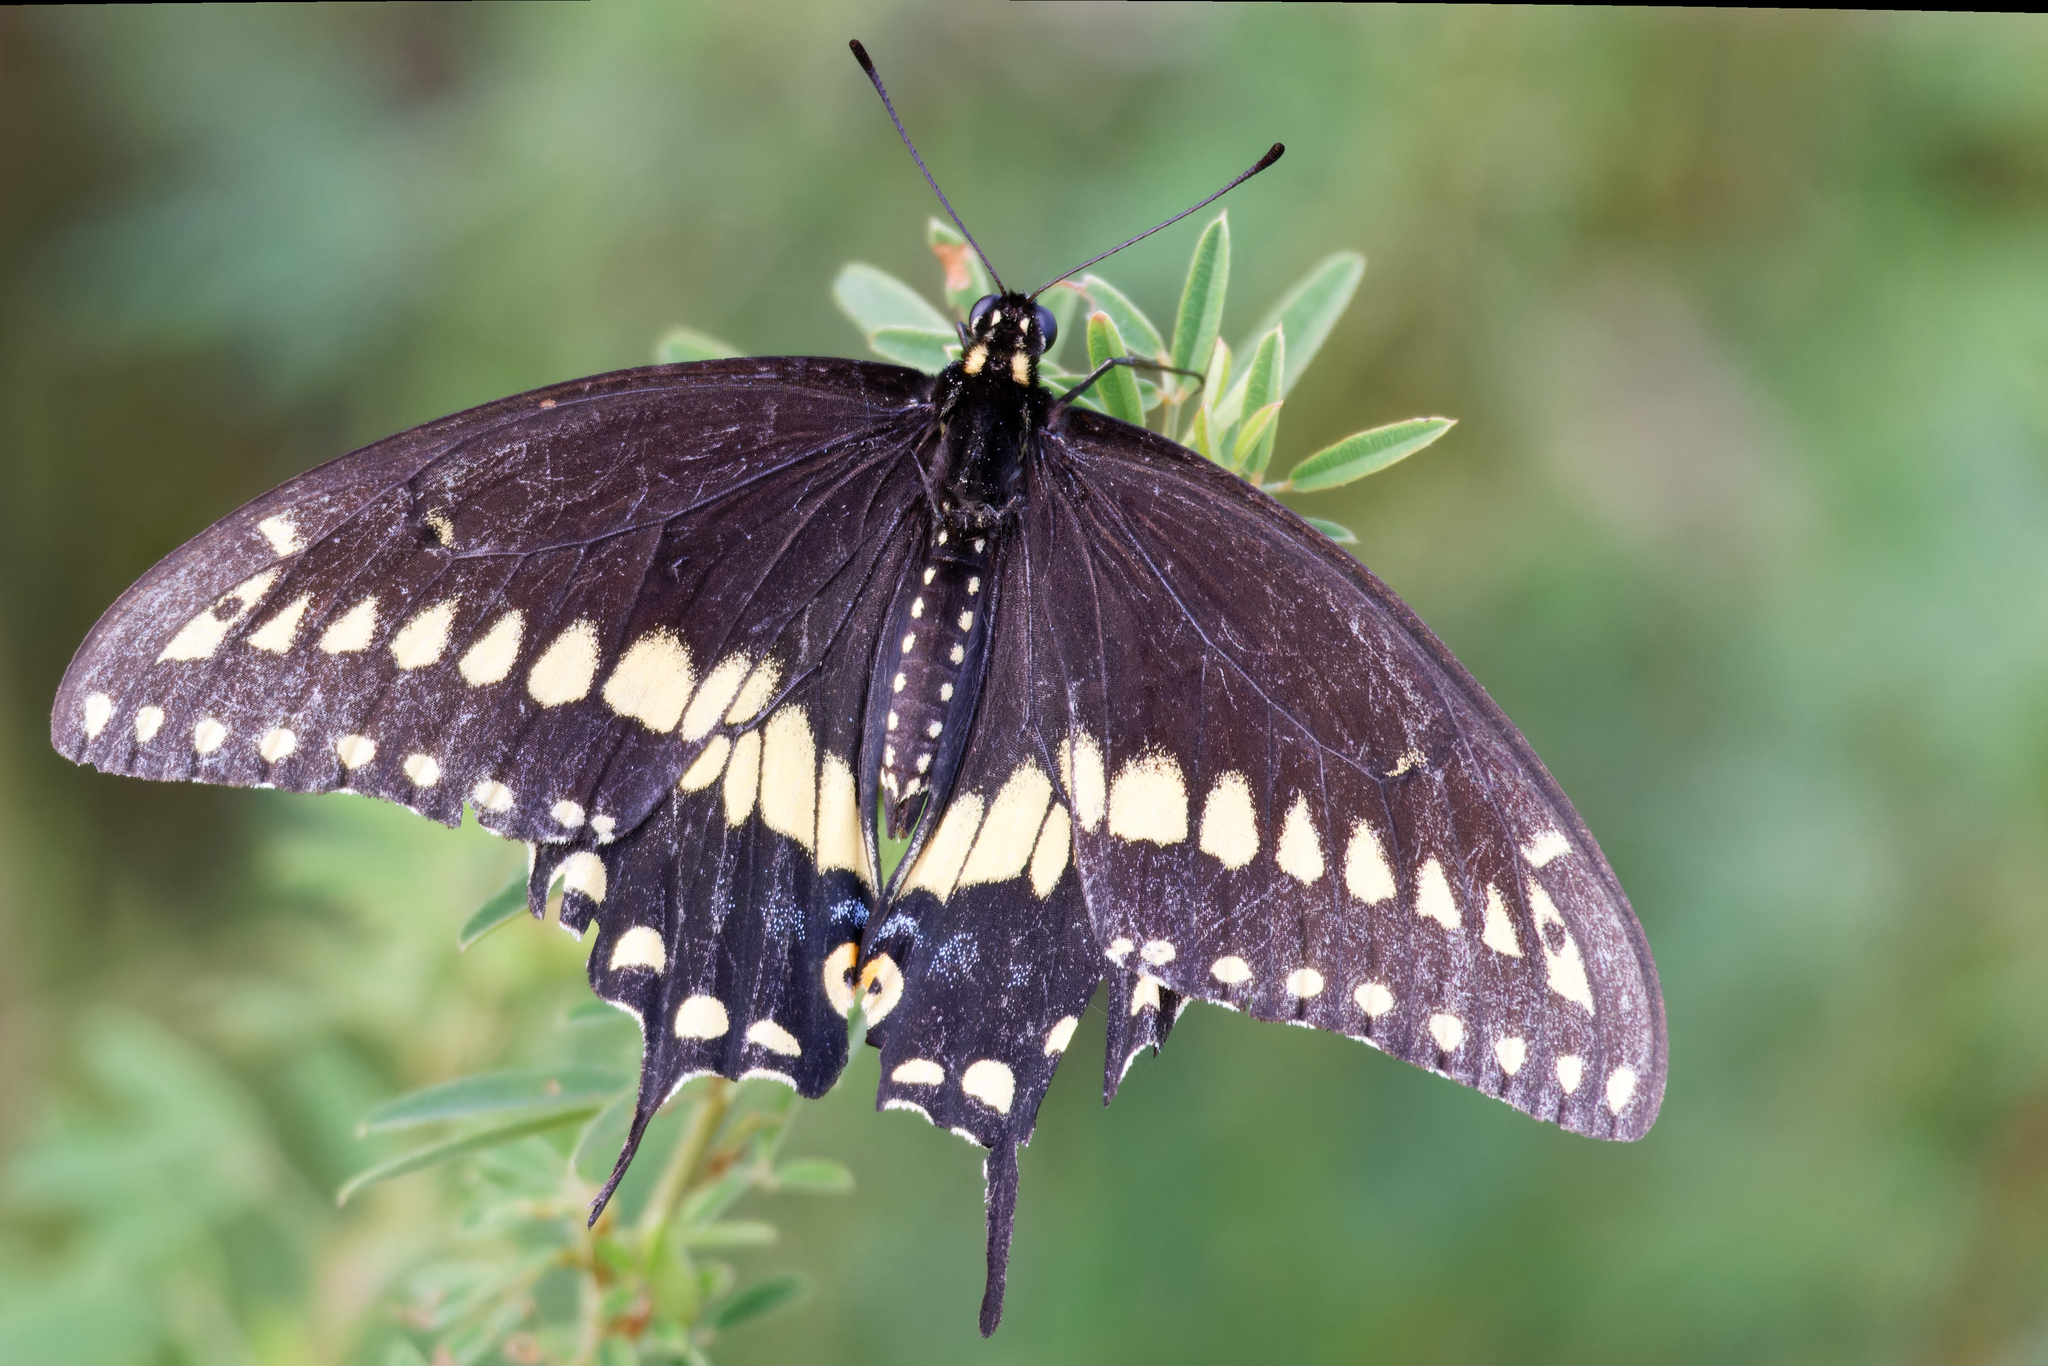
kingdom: Animalia
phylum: Arthropoda
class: Insecta
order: Lepidoptera
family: Papilionidae
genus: Papilio
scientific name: Papilio polyxenes
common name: Black swallowtail
